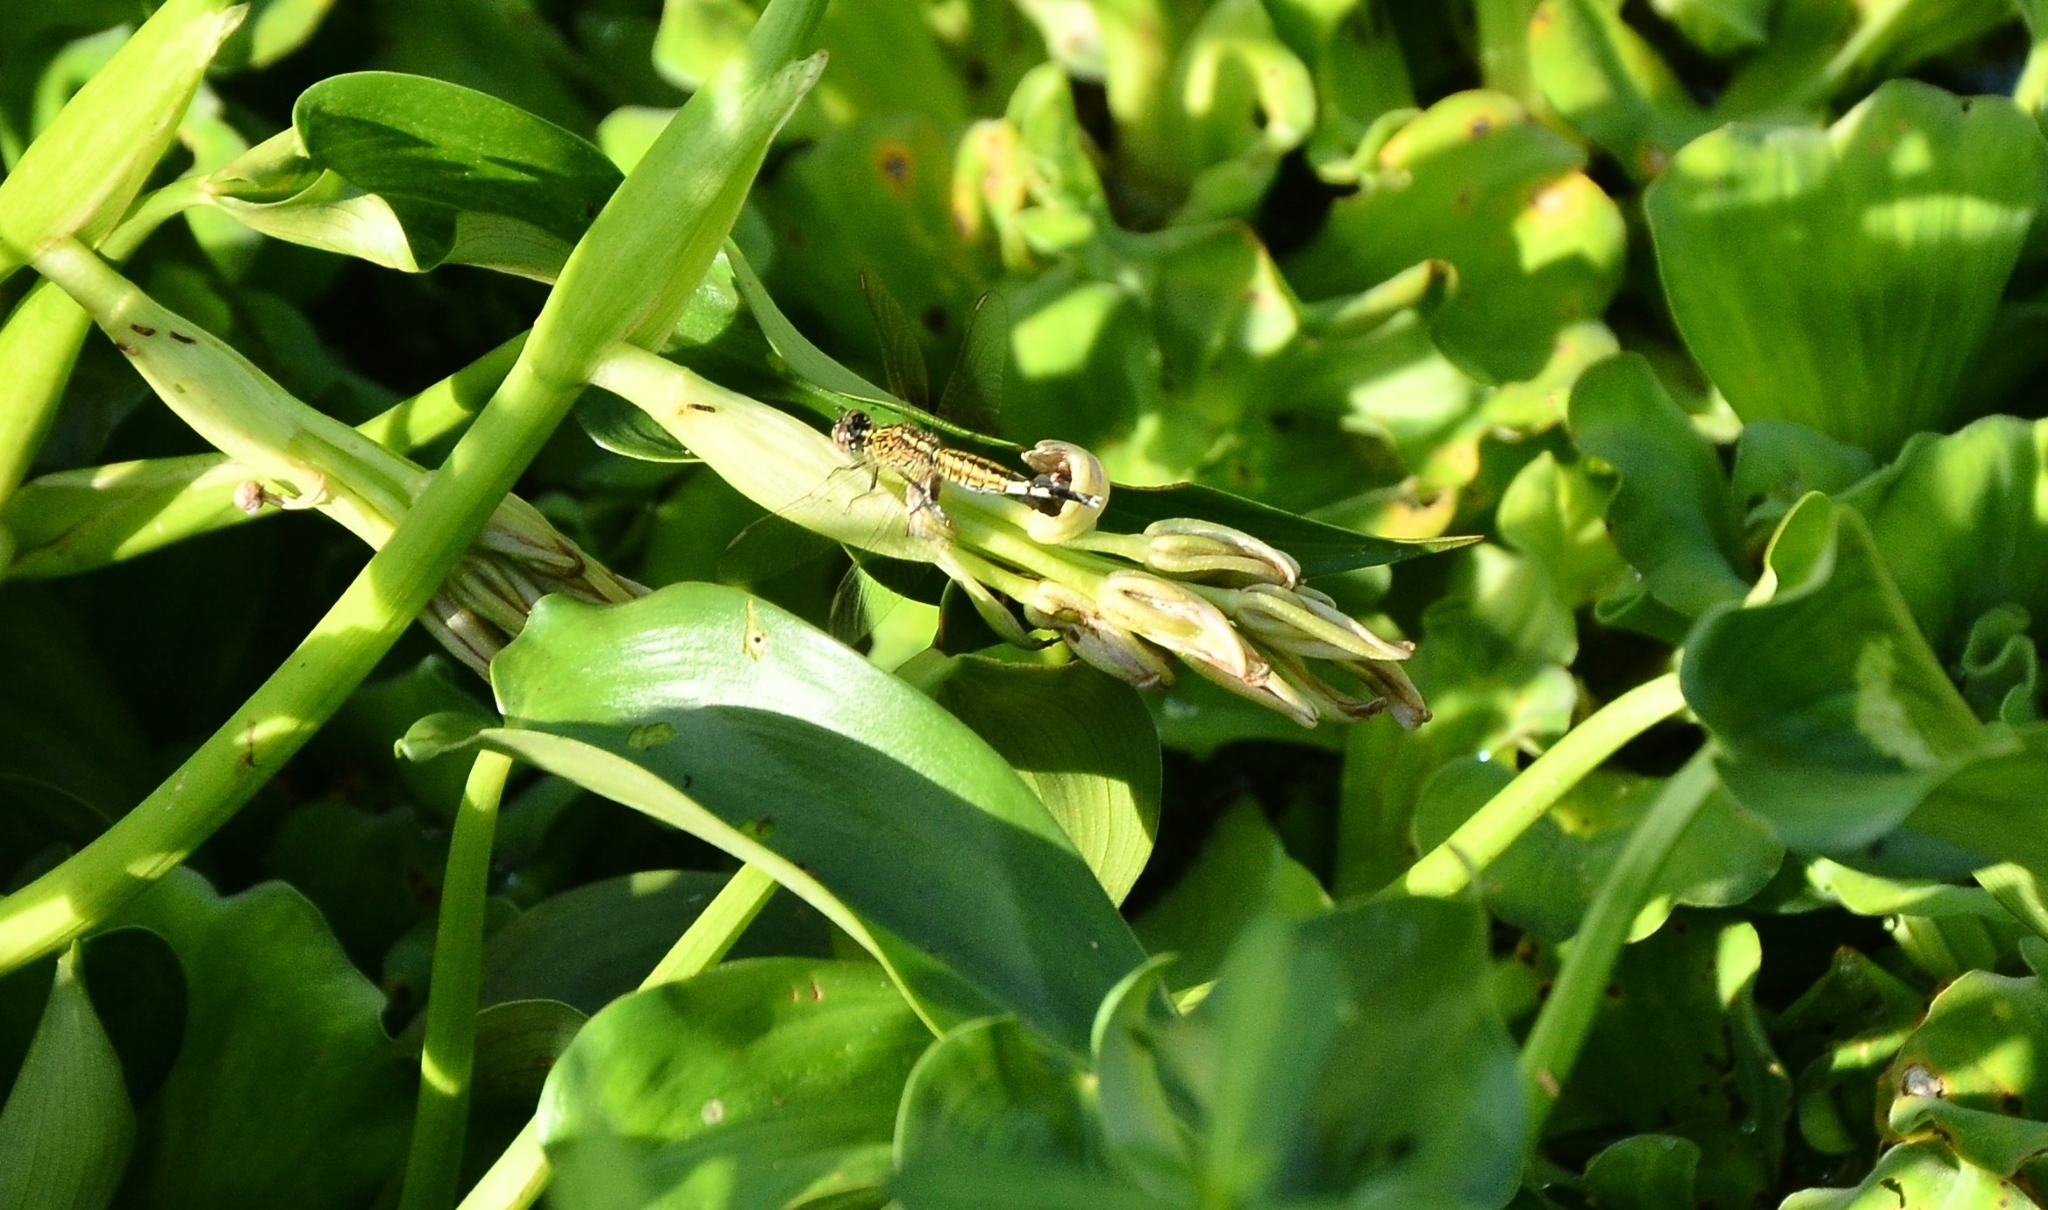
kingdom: Animalia
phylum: Arthropoda
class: Insecta
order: Odonata
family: Libellulidae
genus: Acisoma
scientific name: Acisoma panorpoides
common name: Asian pintail
